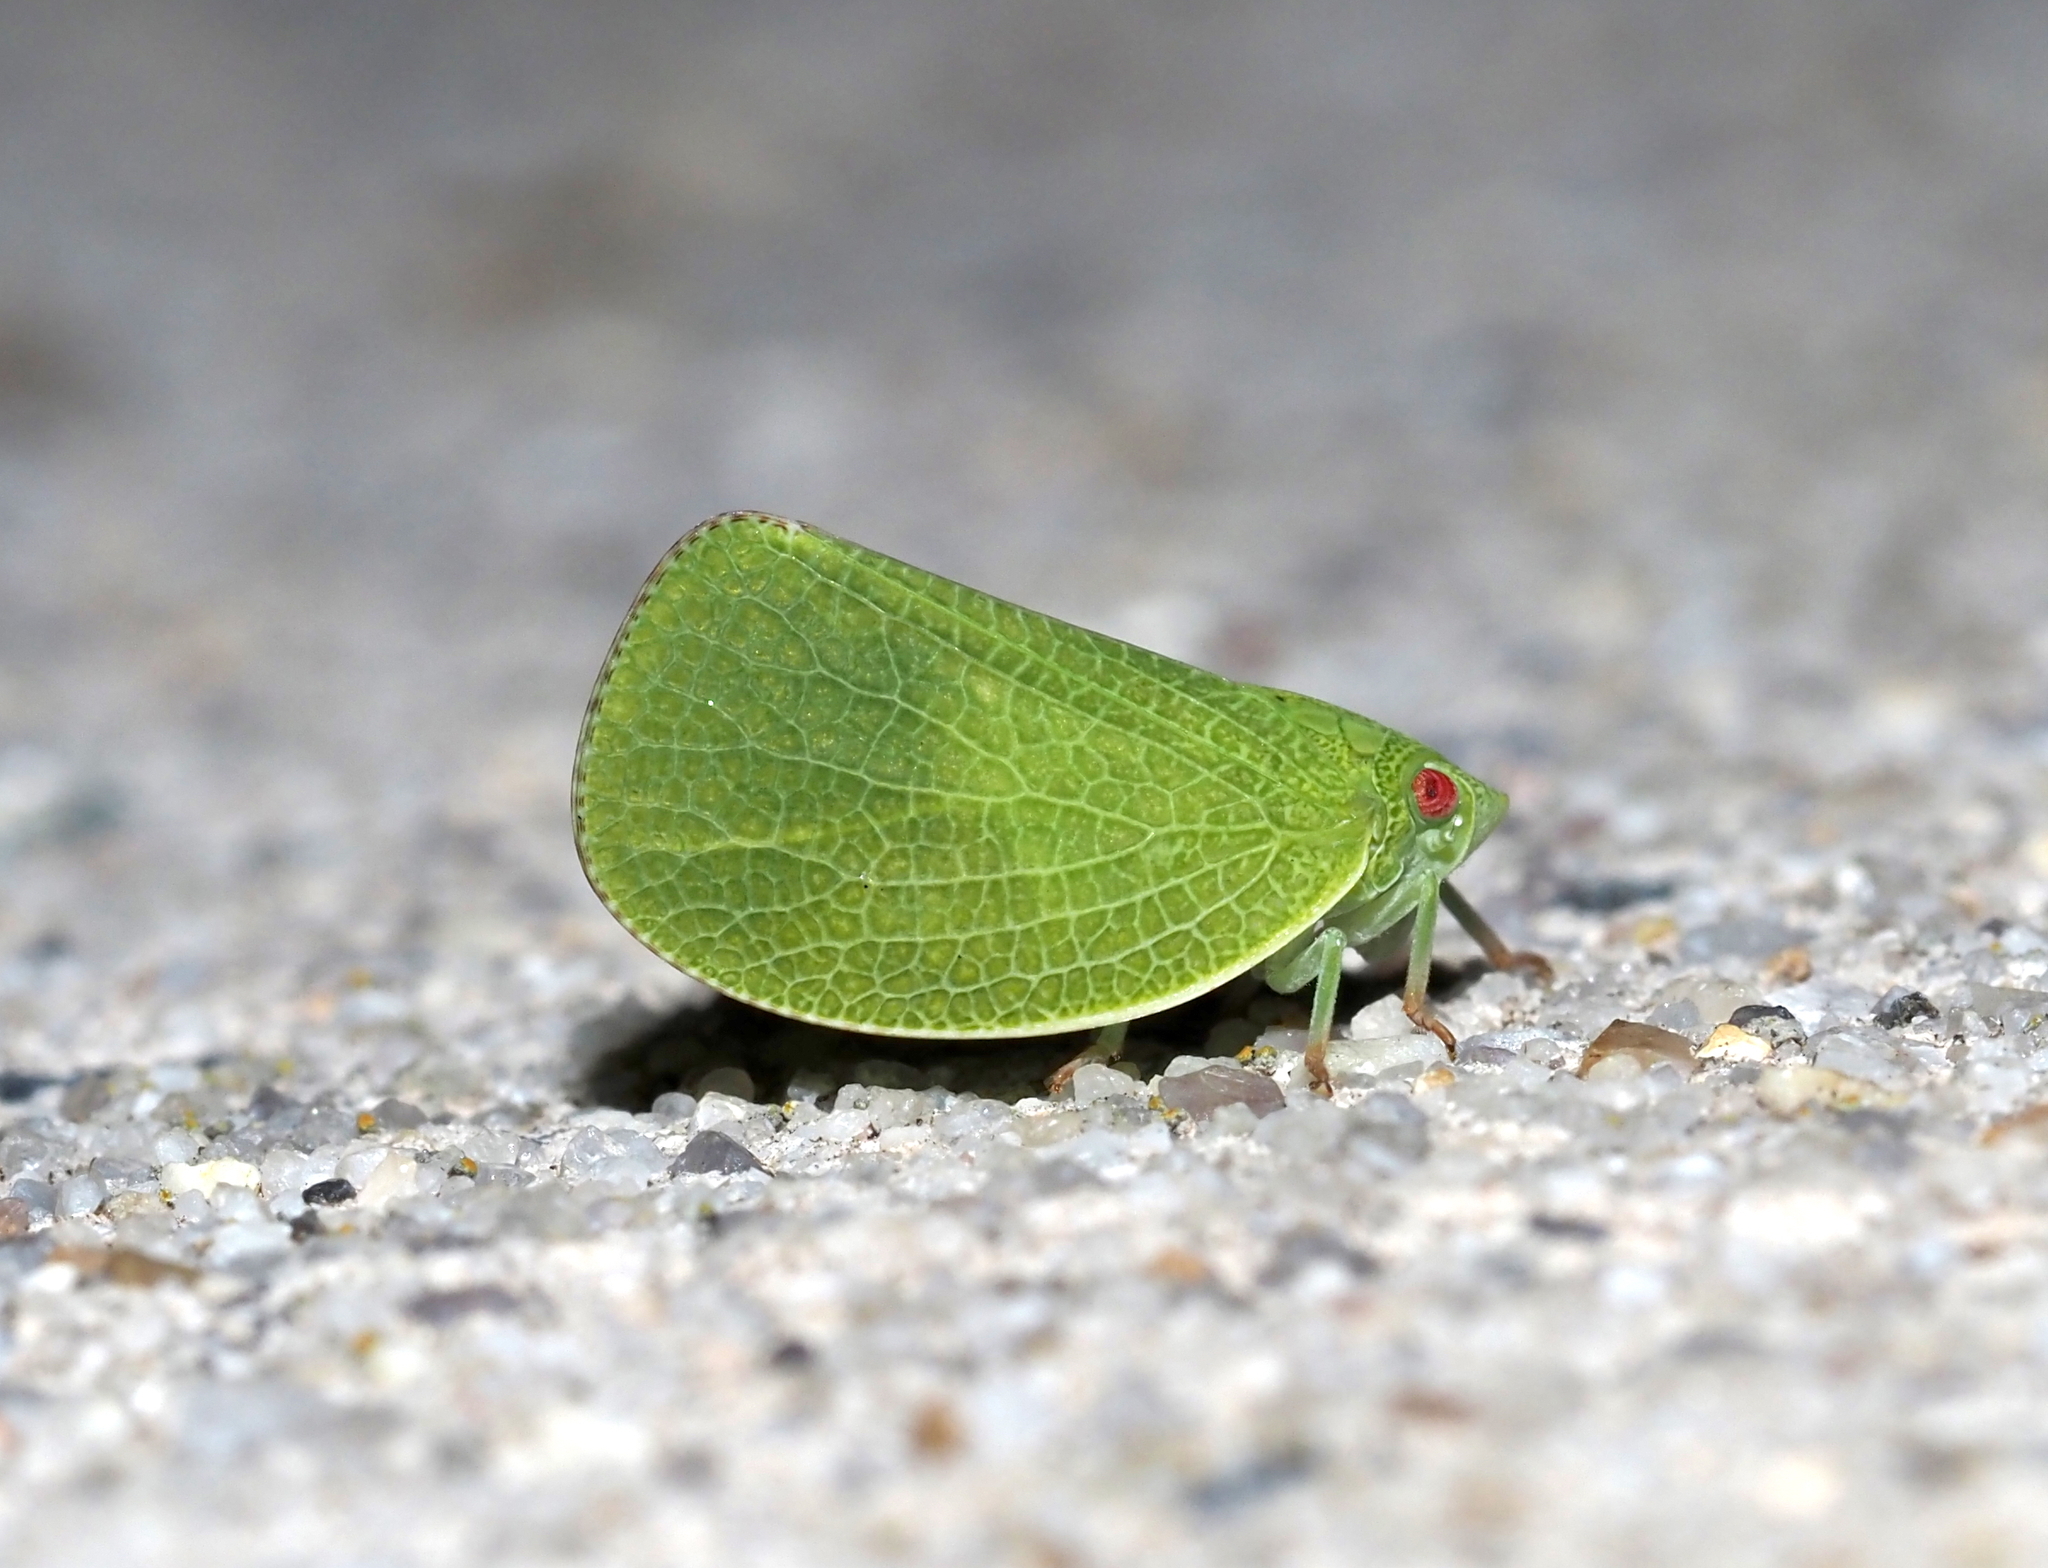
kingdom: Animalia
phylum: Arthropoda
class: Insecta
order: Hemiptera
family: Acanaloniidae
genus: Acanalonia
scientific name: Acanalonia conica
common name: Green cone-headed planthopper
